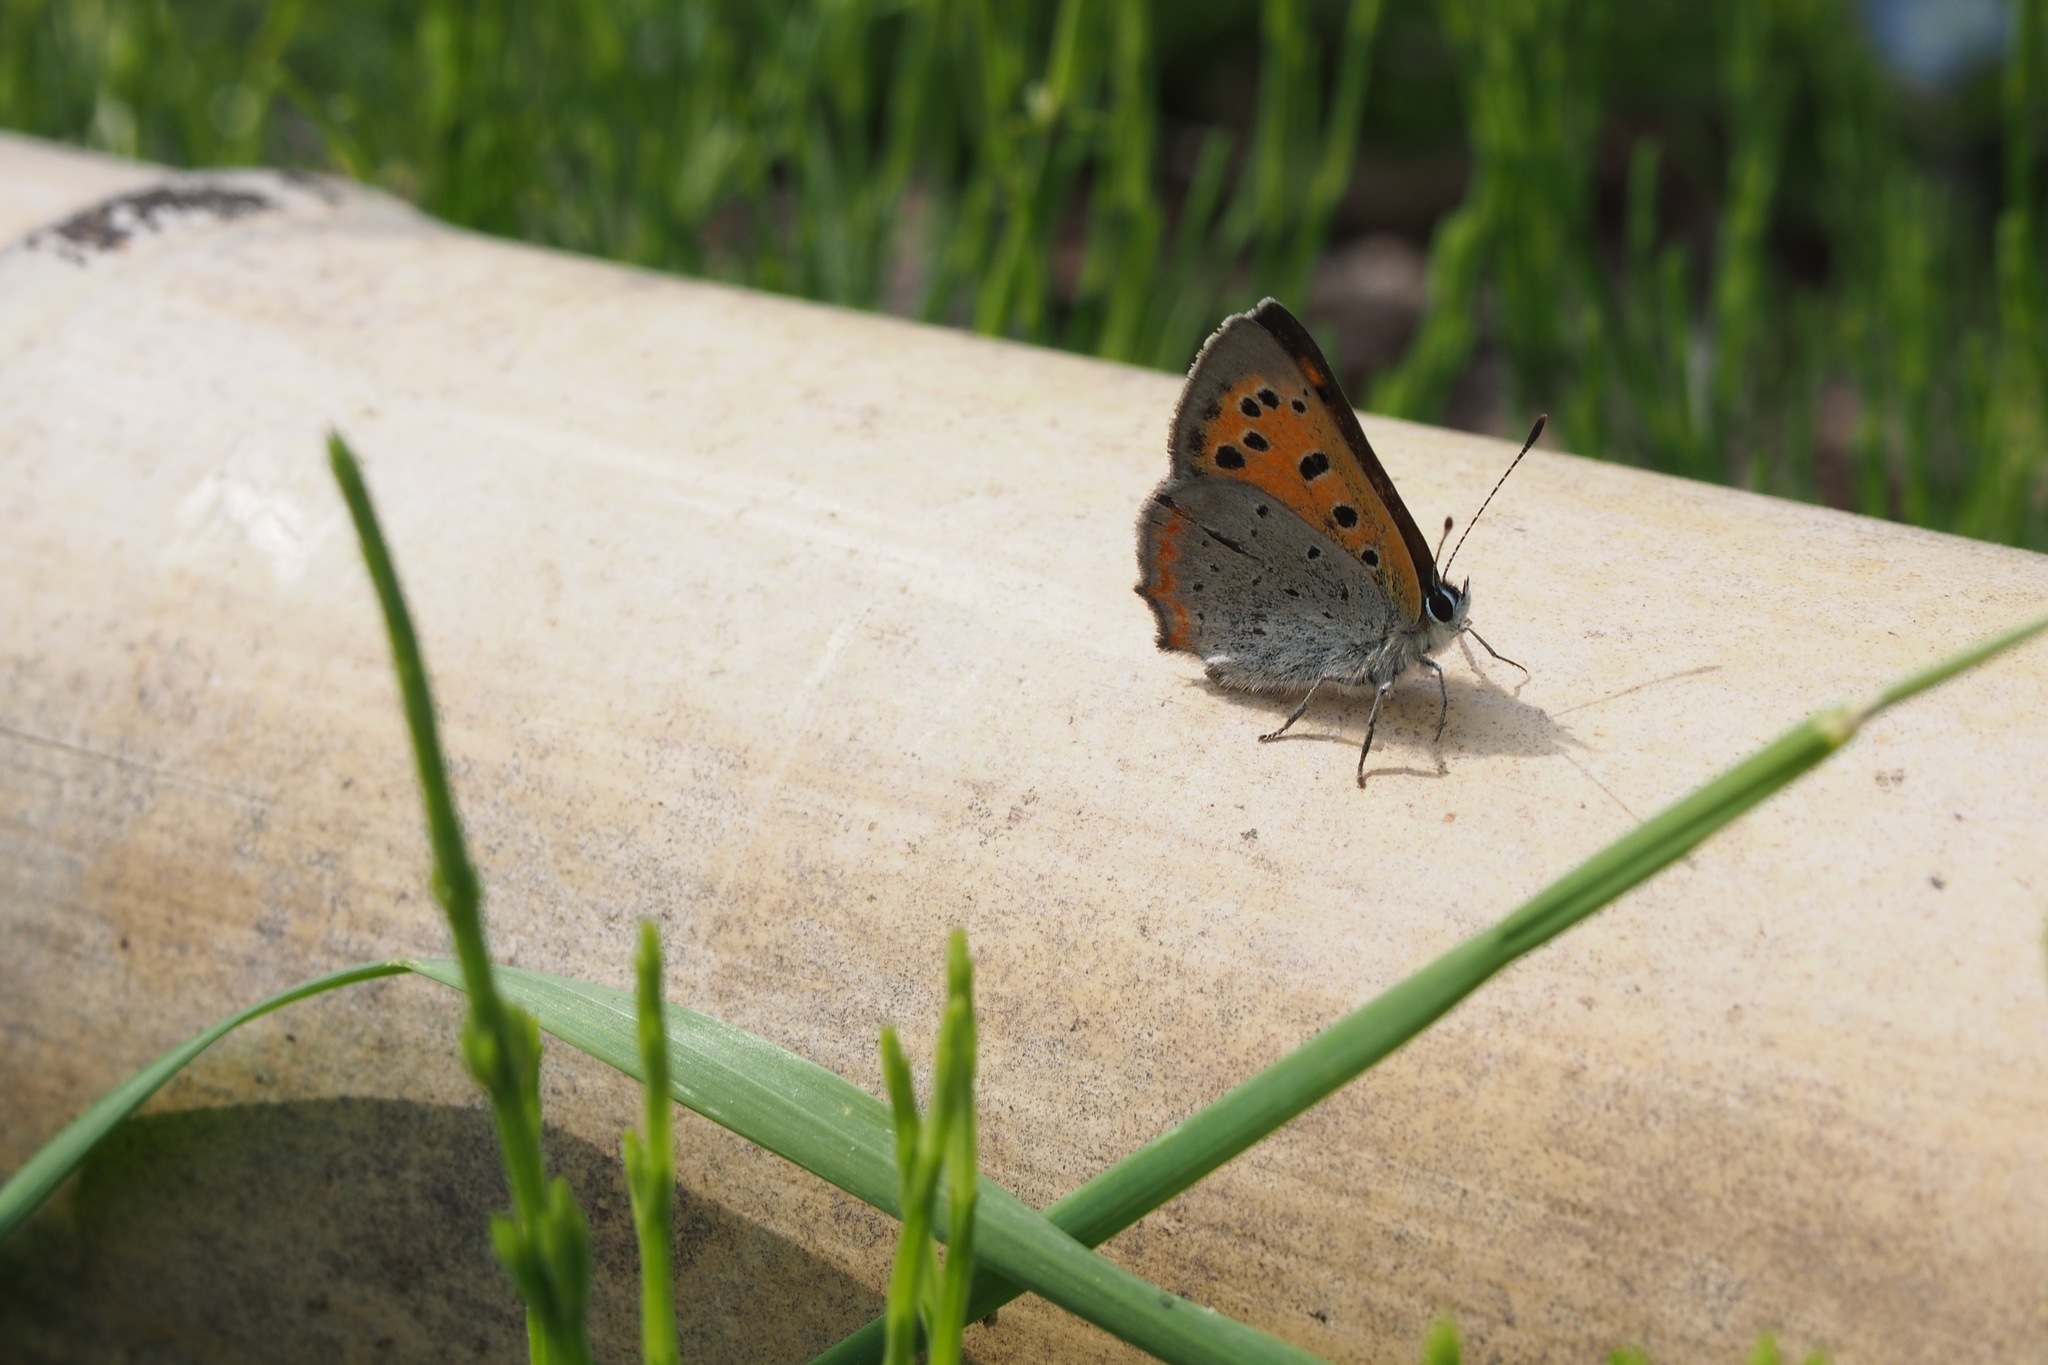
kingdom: Animalia
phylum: Arthropoda
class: Insecta
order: Lepidoptera
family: Lycaenidae
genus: Lycaena
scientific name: Lycaena phlaeas
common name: Small copper
